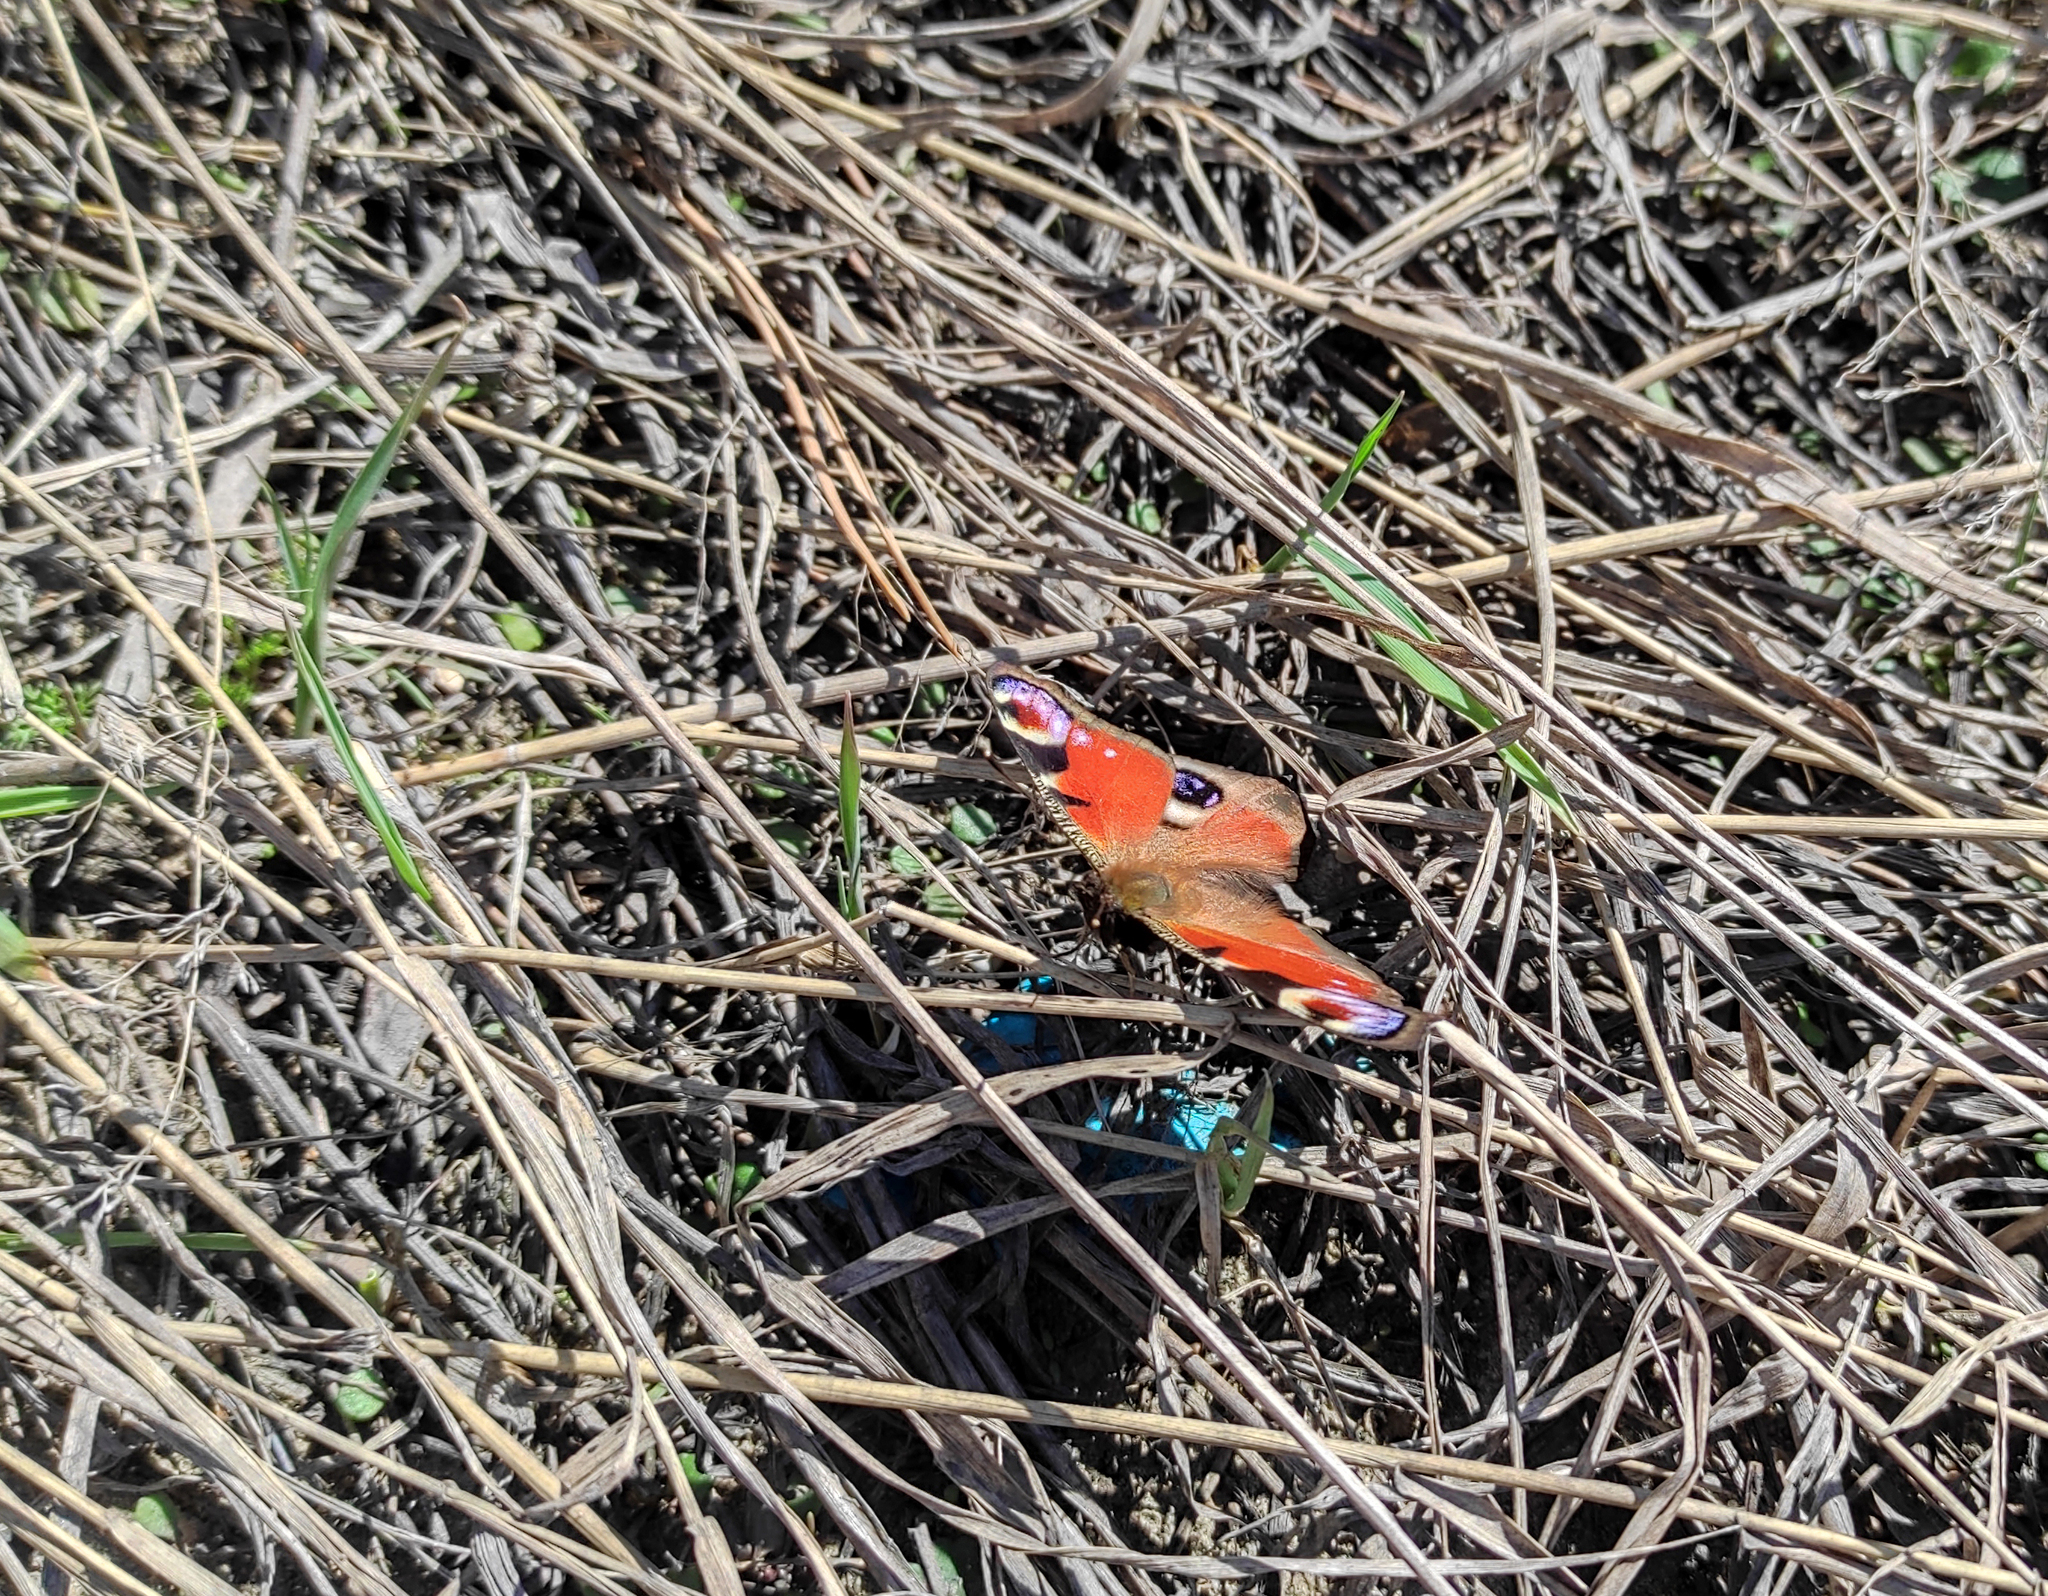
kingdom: Animalia
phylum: Arthropoda
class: Insecta
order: Lepidoptera
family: Nymphalidae
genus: Aglais
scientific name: Aglais io
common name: Peacock
